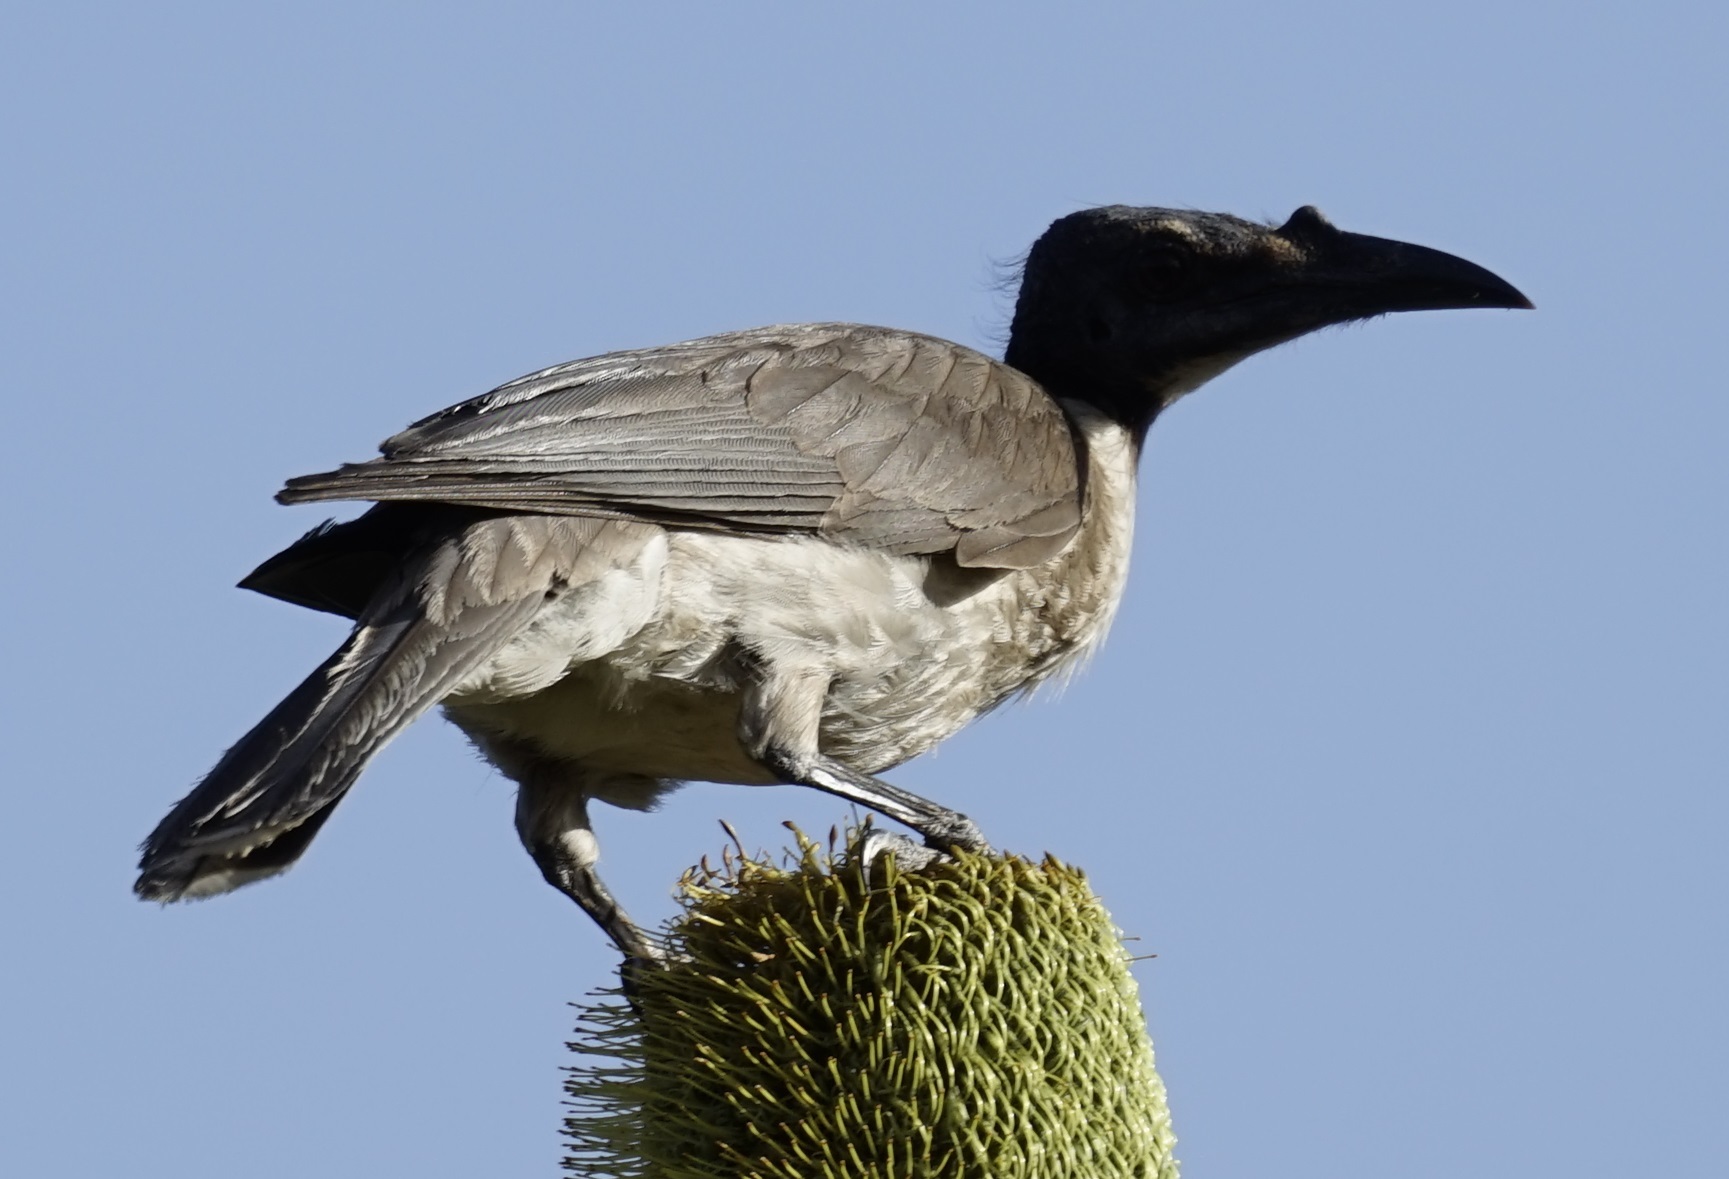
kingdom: Animalia
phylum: Chordata
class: Aves
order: Passeriformes
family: Meliphagidae
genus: Philemon
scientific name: Philemon corniculatus
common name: Noisy friarbird
